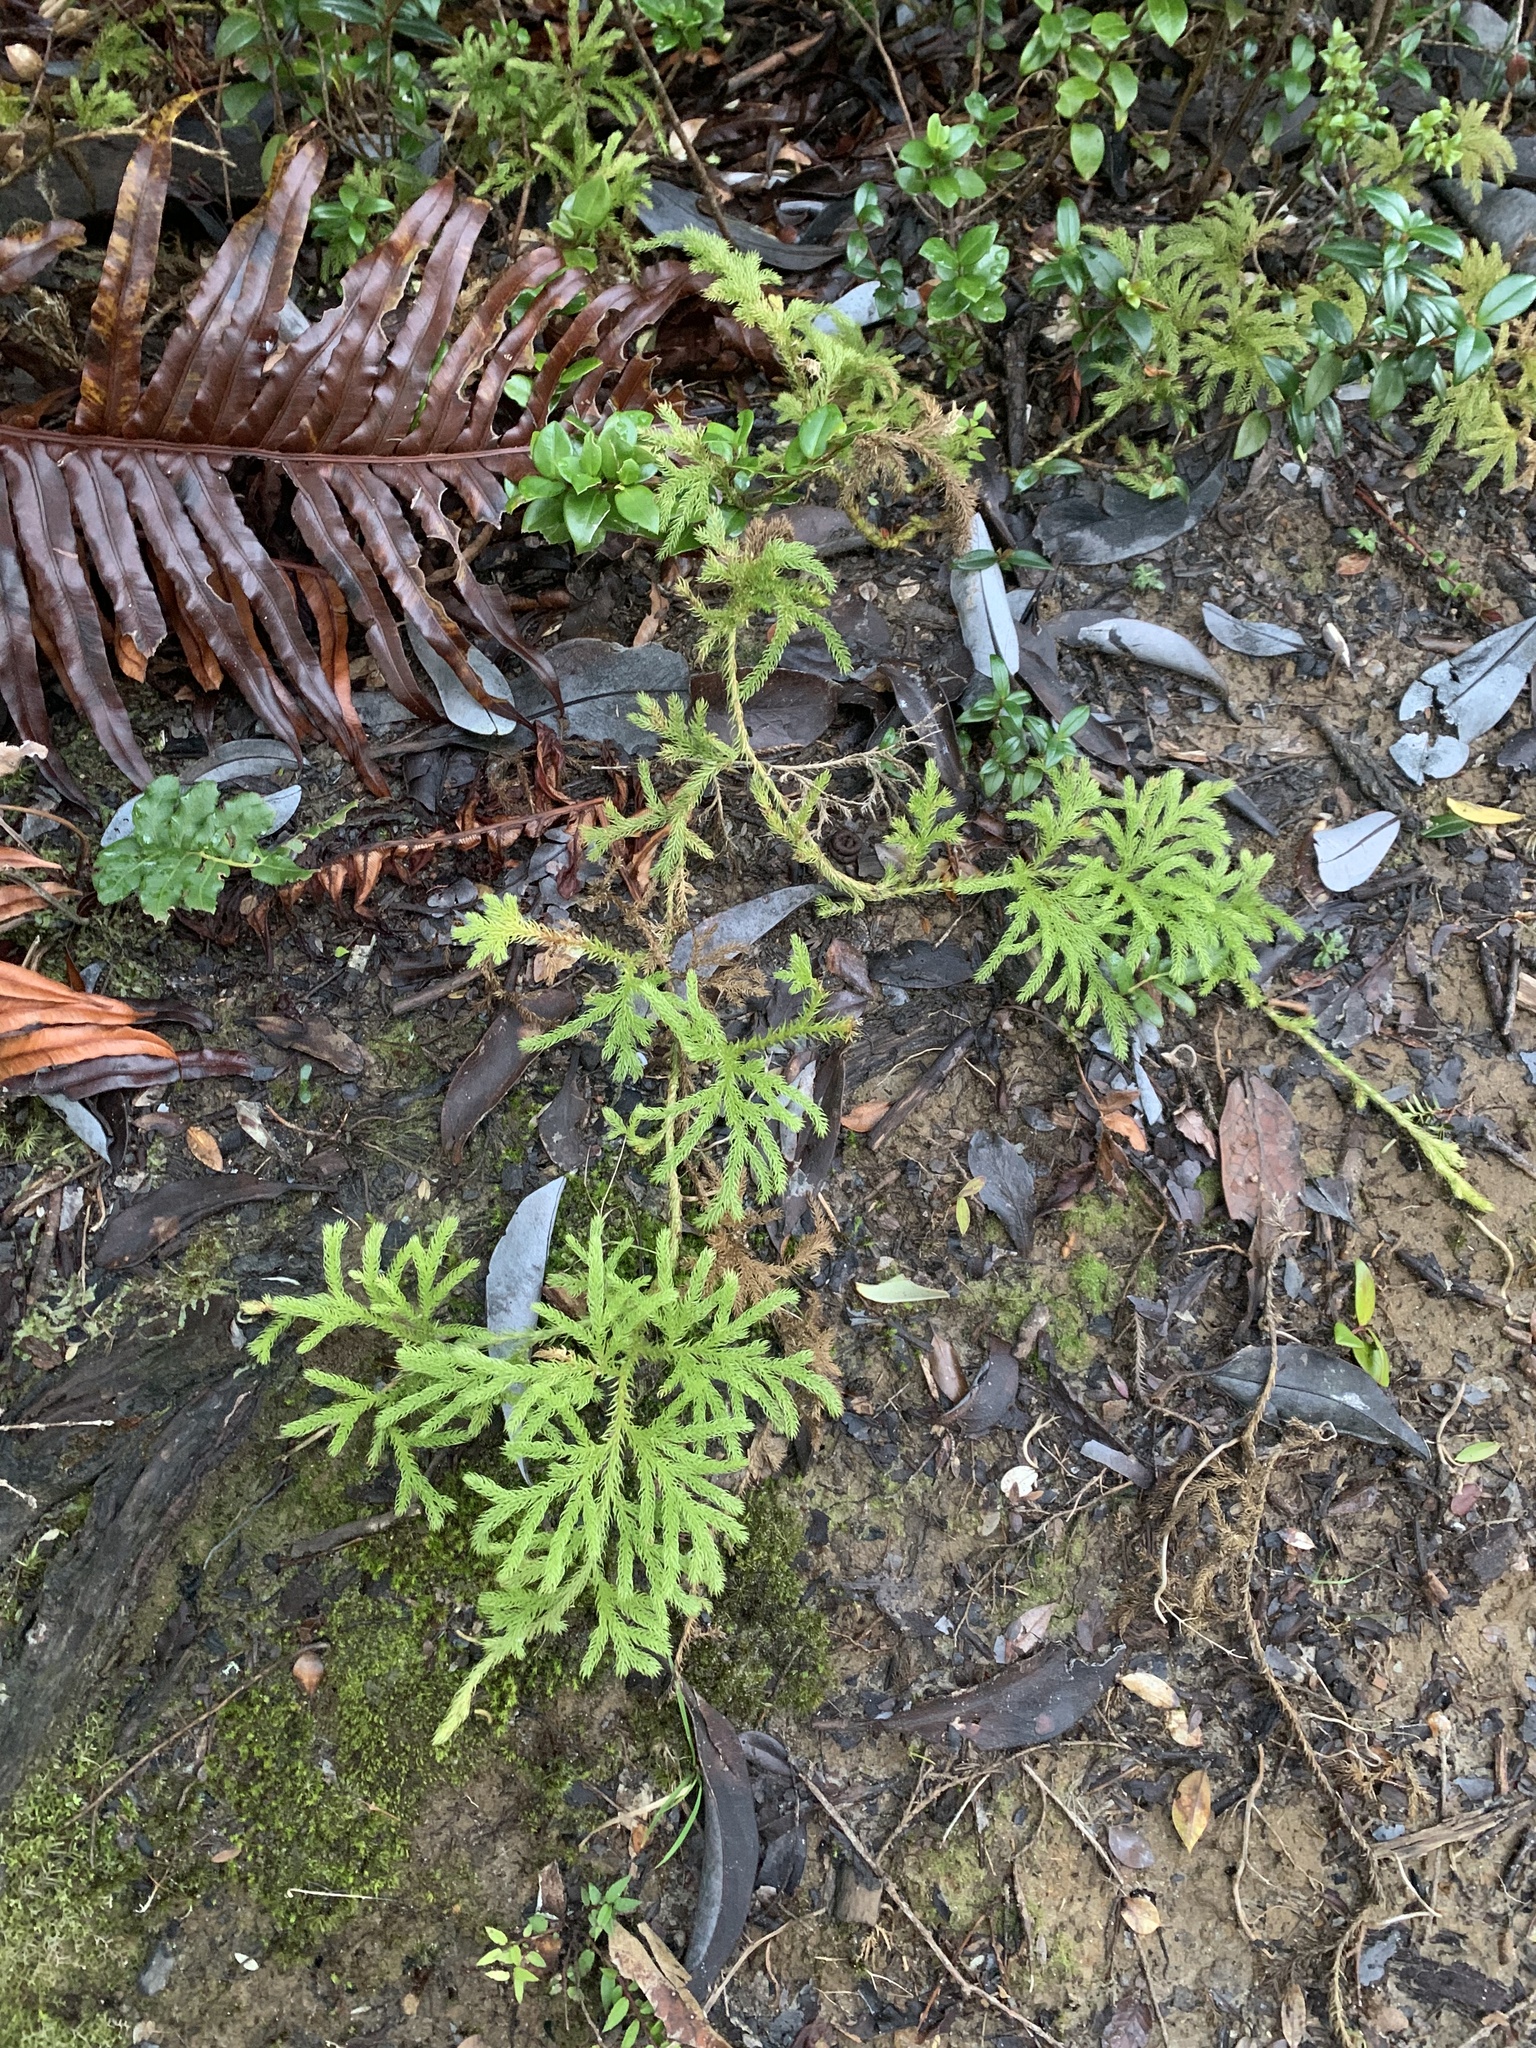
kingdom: Plantae
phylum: Tracheophyta
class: Lycopodiopsida
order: Lycopodiales
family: Lycopodiaceae
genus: Austrolycopodium
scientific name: Austrolycopodium paniculatum
